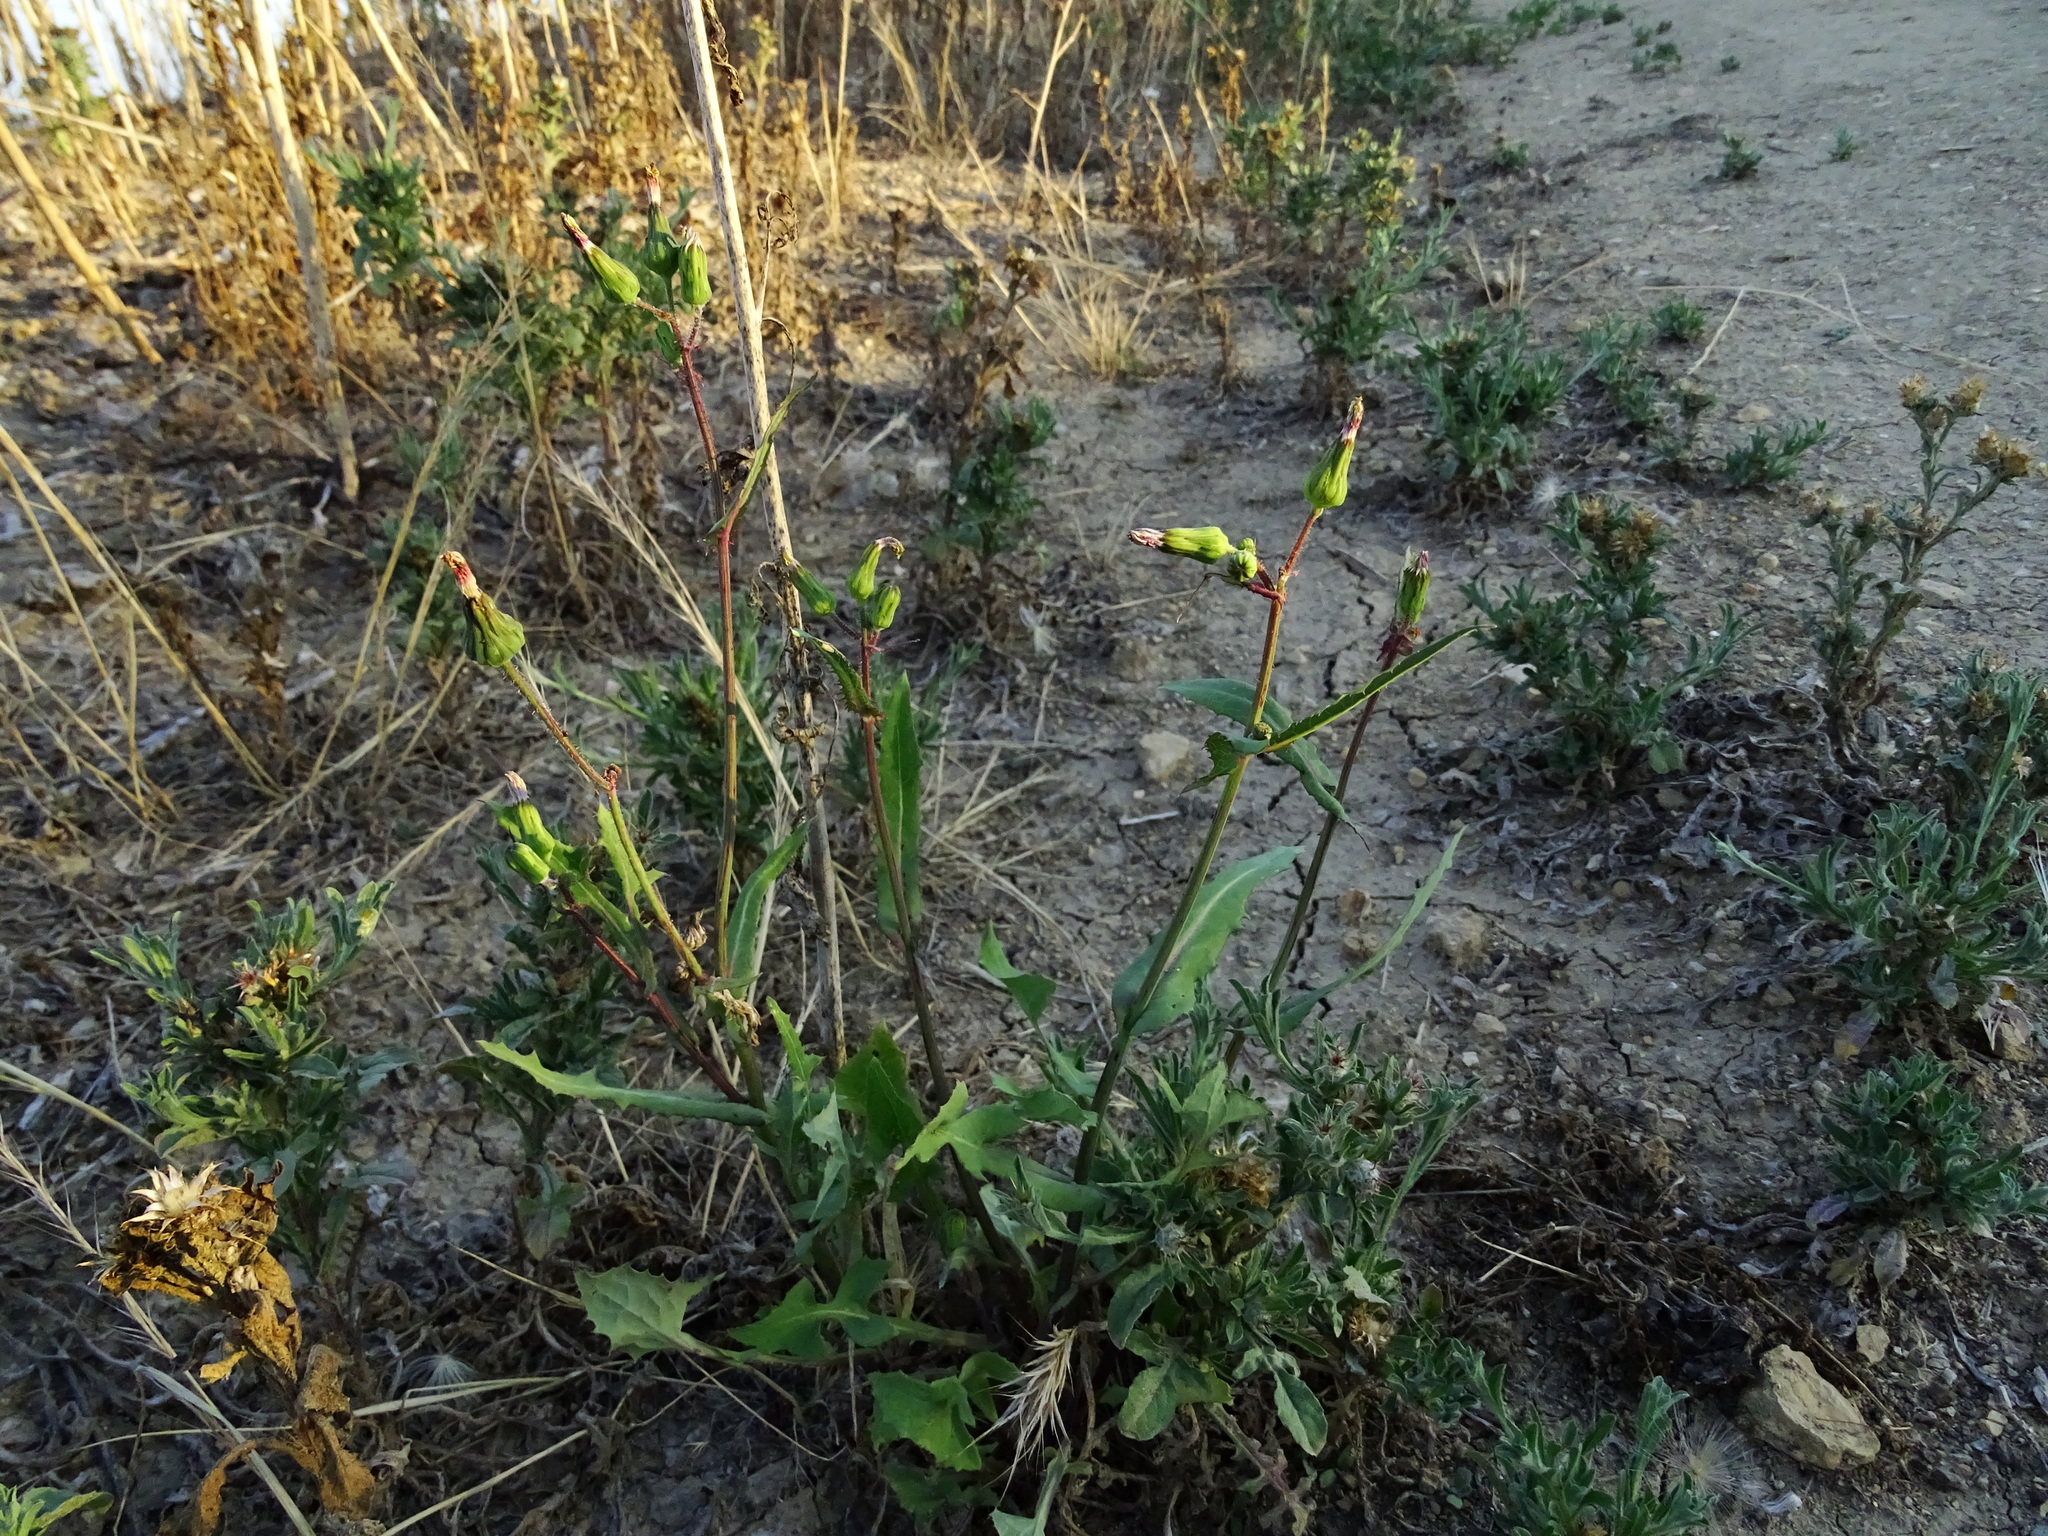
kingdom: Plantae
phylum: Tracheophyta
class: Magnoliopsida
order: Asterales
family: Asteraceae
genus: Sonchus
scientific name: Sonchus oleraceus
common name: Common sowthistle
